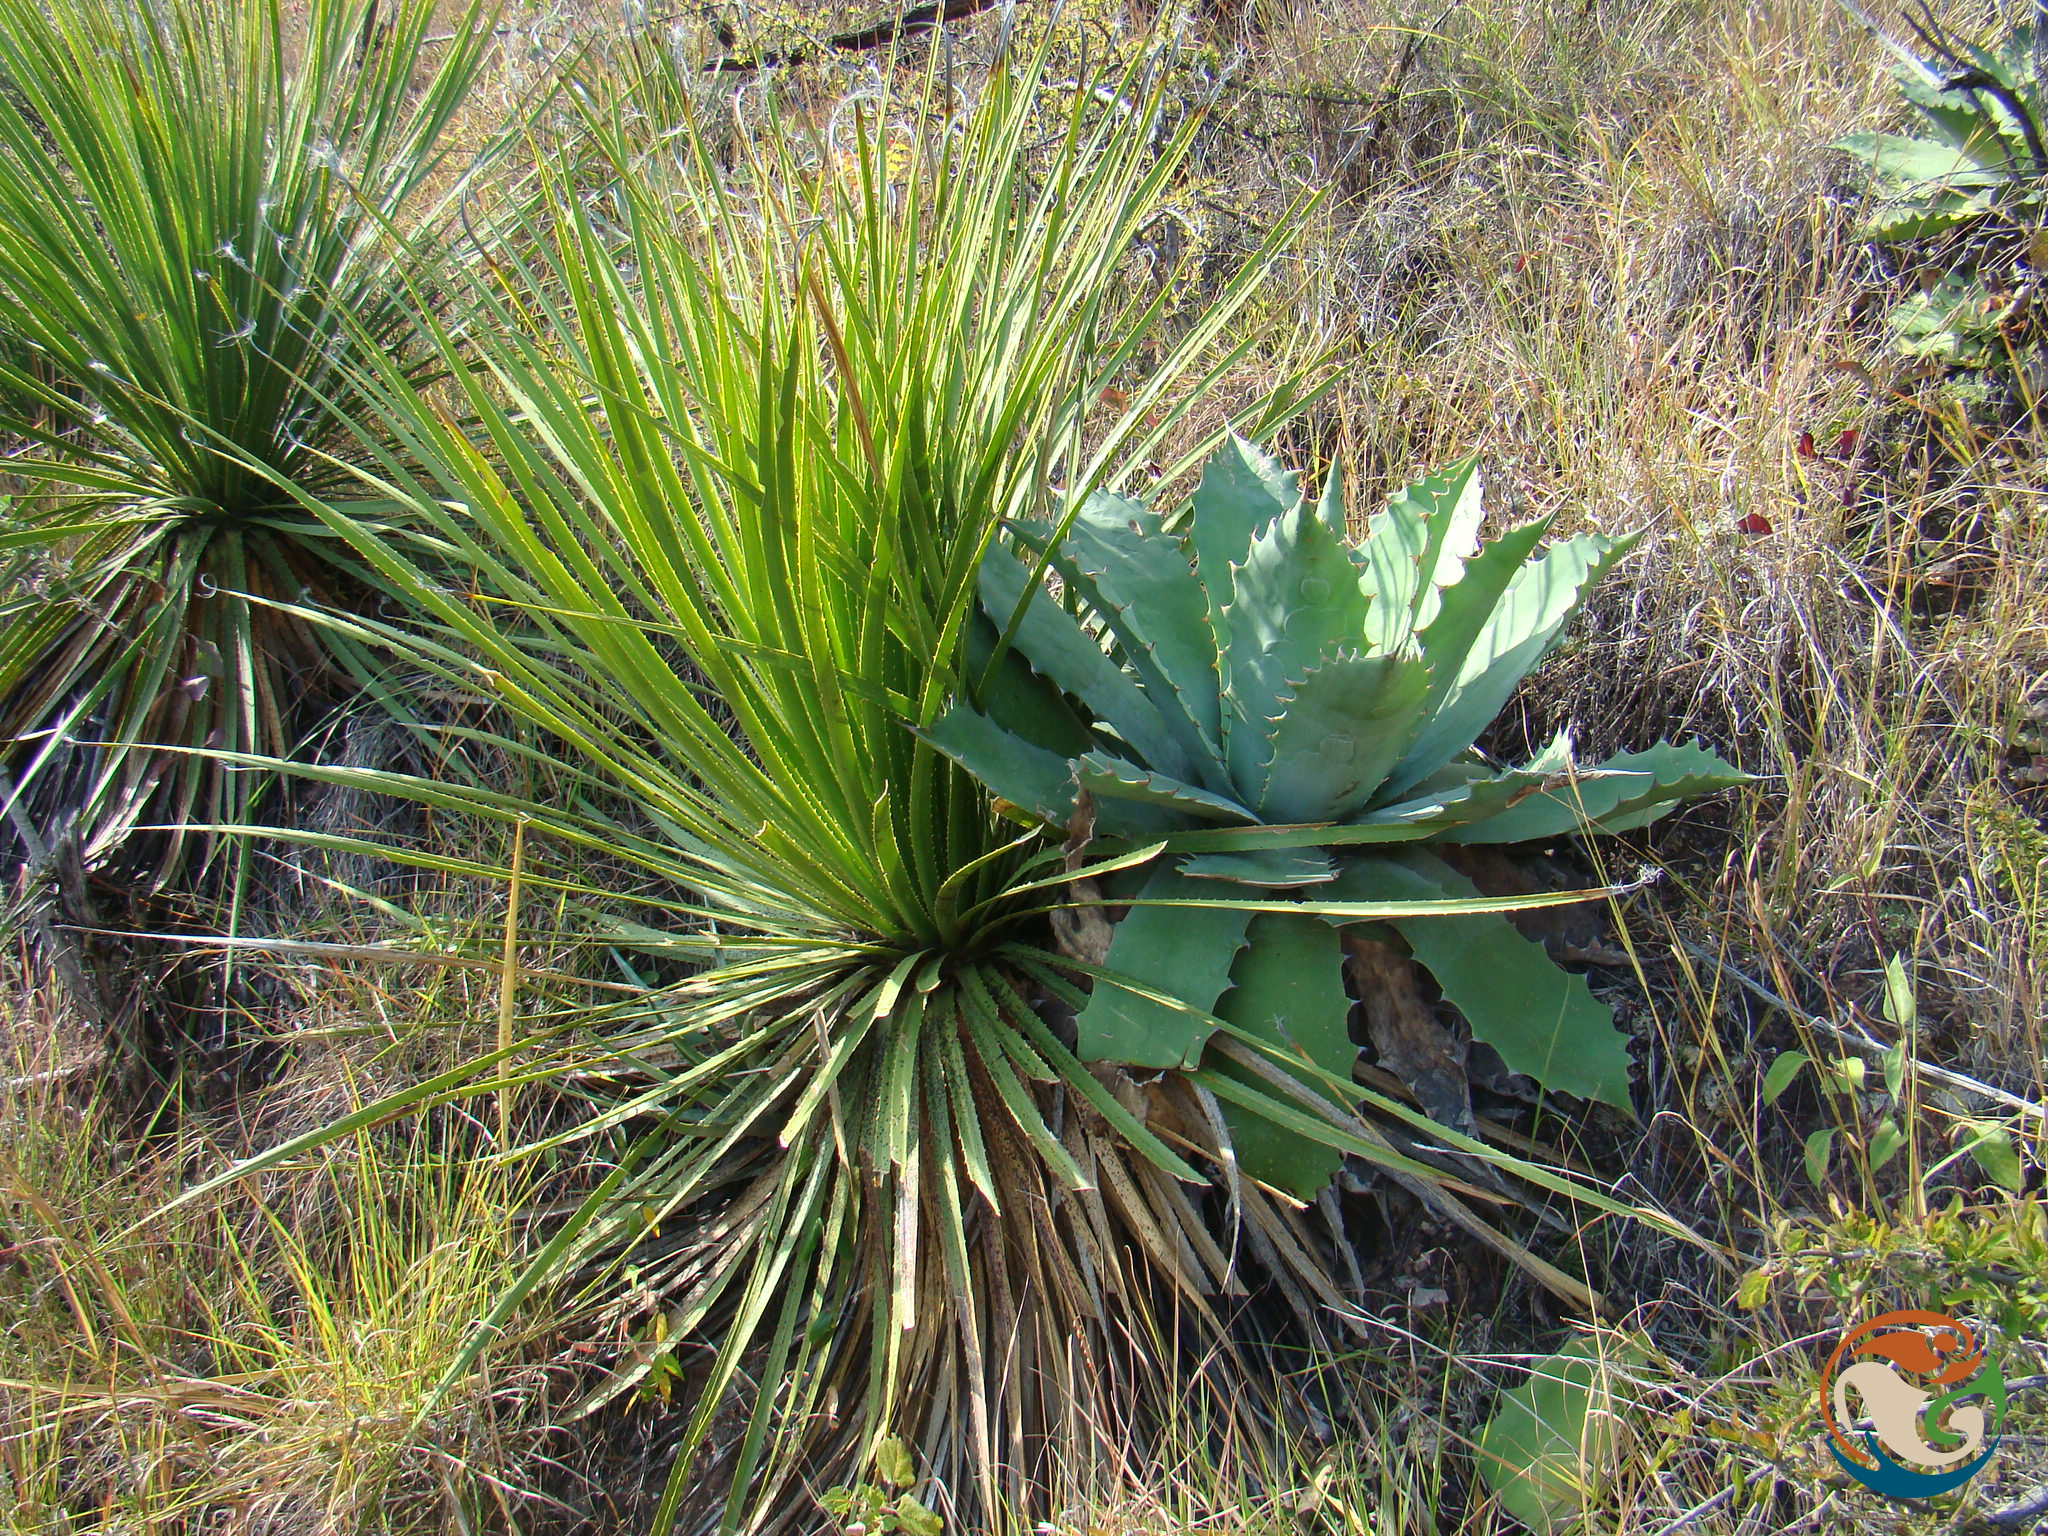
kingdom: Plantae
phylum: Tracheophyta
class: Liliopsida
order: Asparagales
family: Asparagaceae
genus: Agave
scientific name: Agave potatorum
